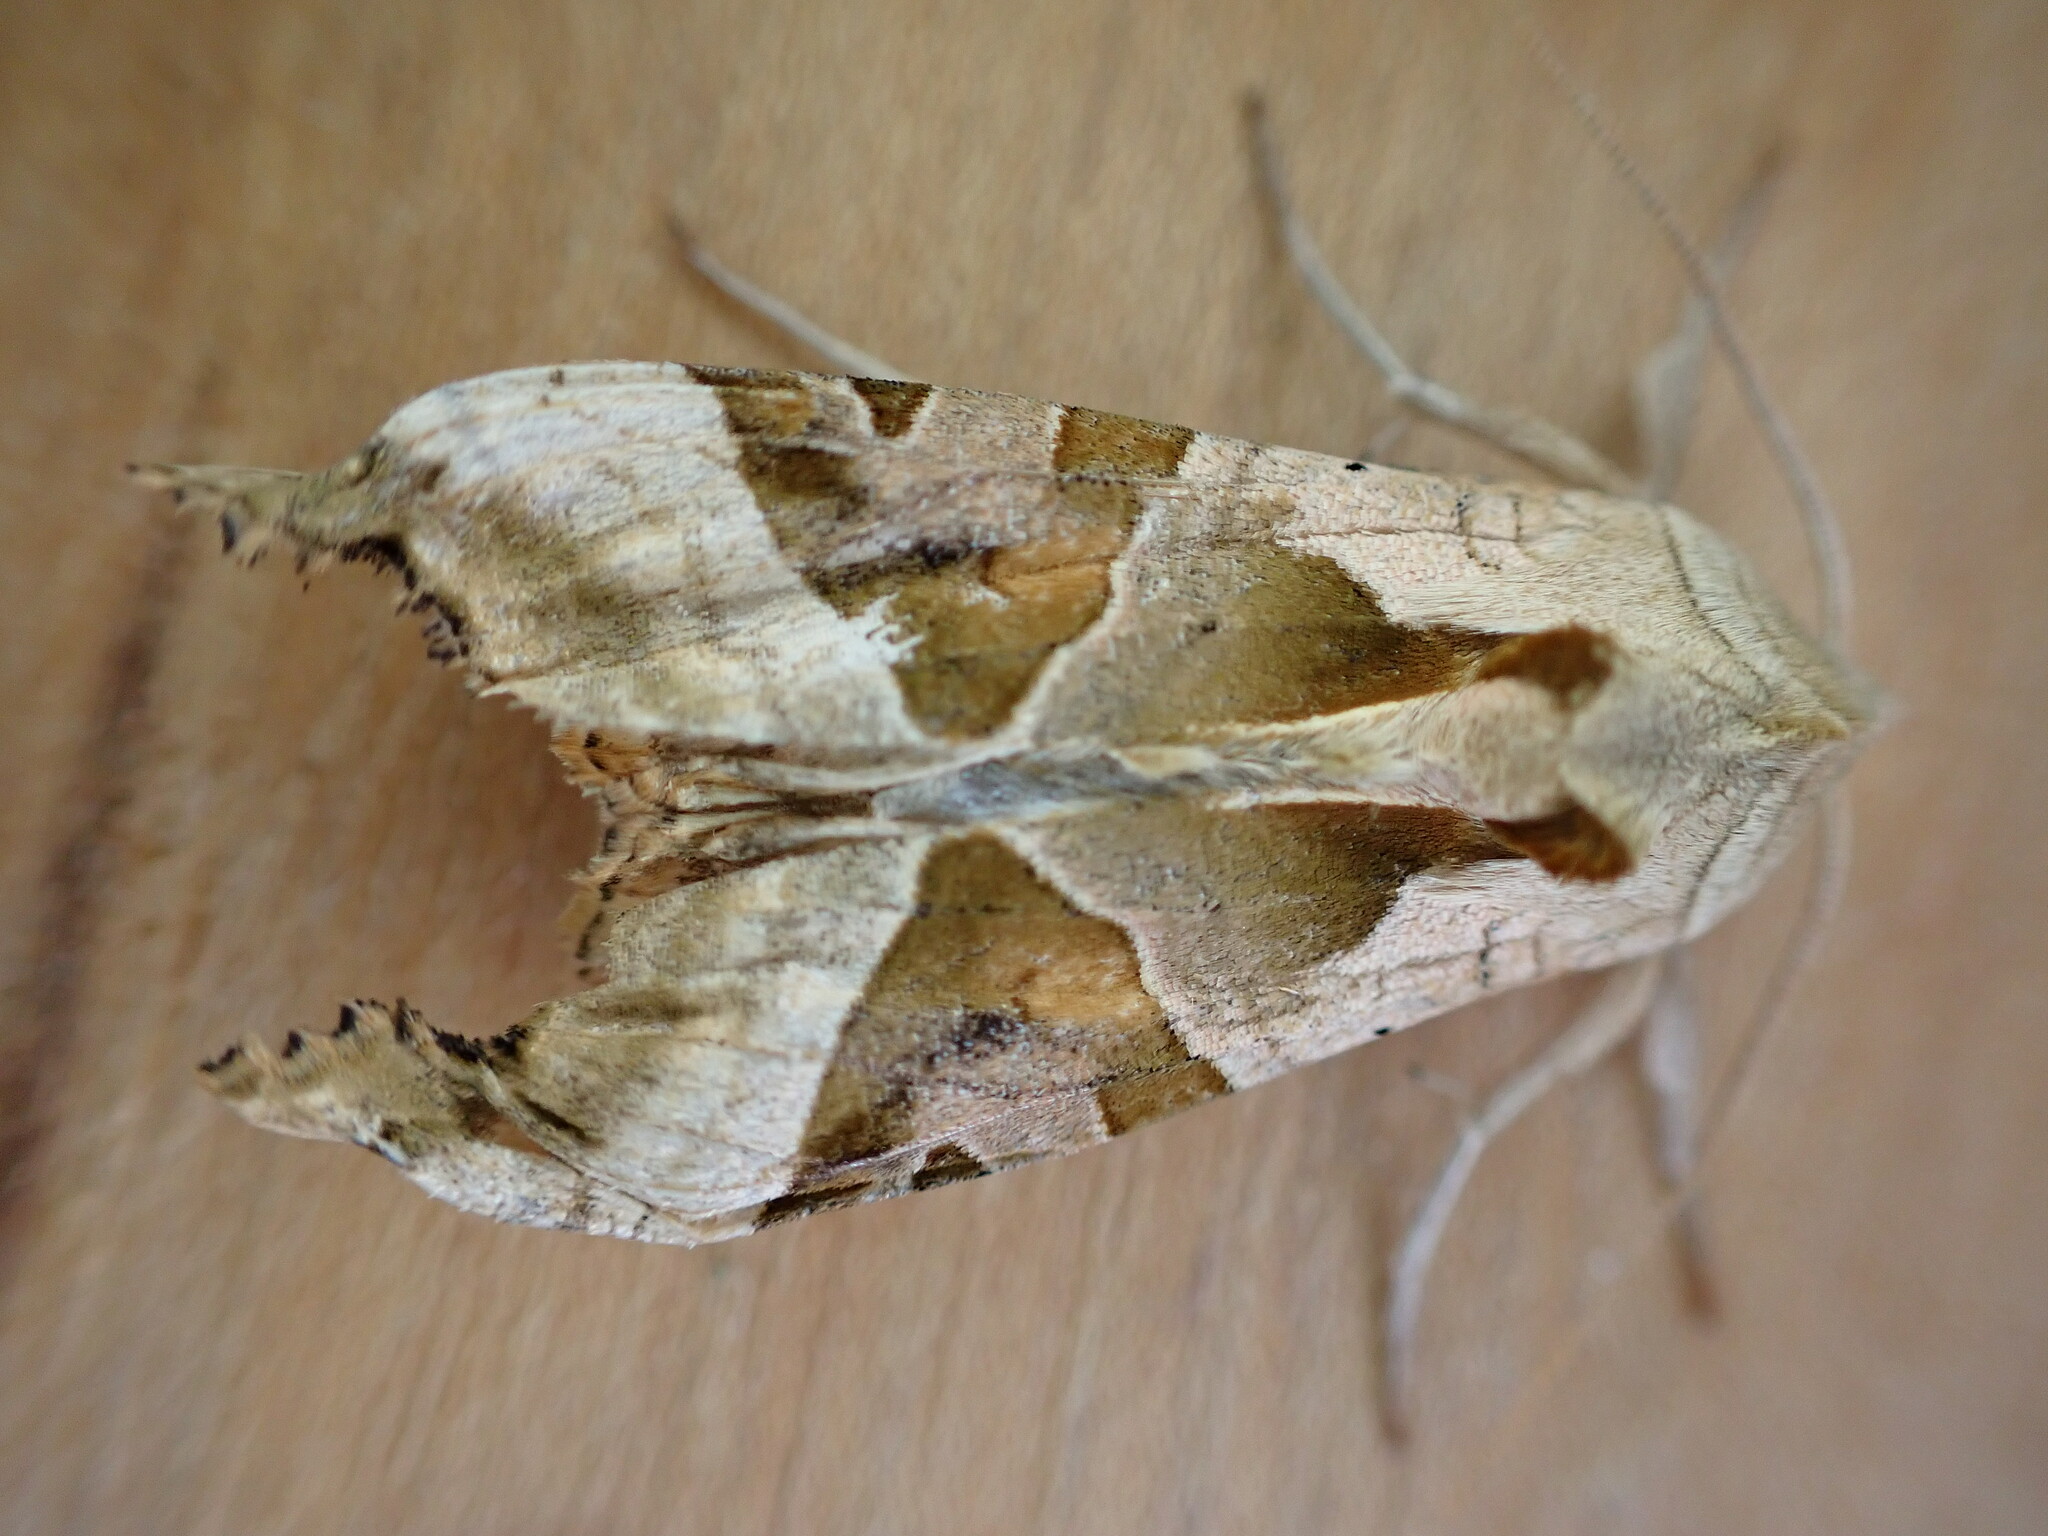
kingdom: Animalia
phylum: Arthropoda
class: Insecta
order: Lepidoptera
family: Noctuidae
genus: Phlogophora
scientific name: Phlogophora meticulosa
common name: Angle shades
